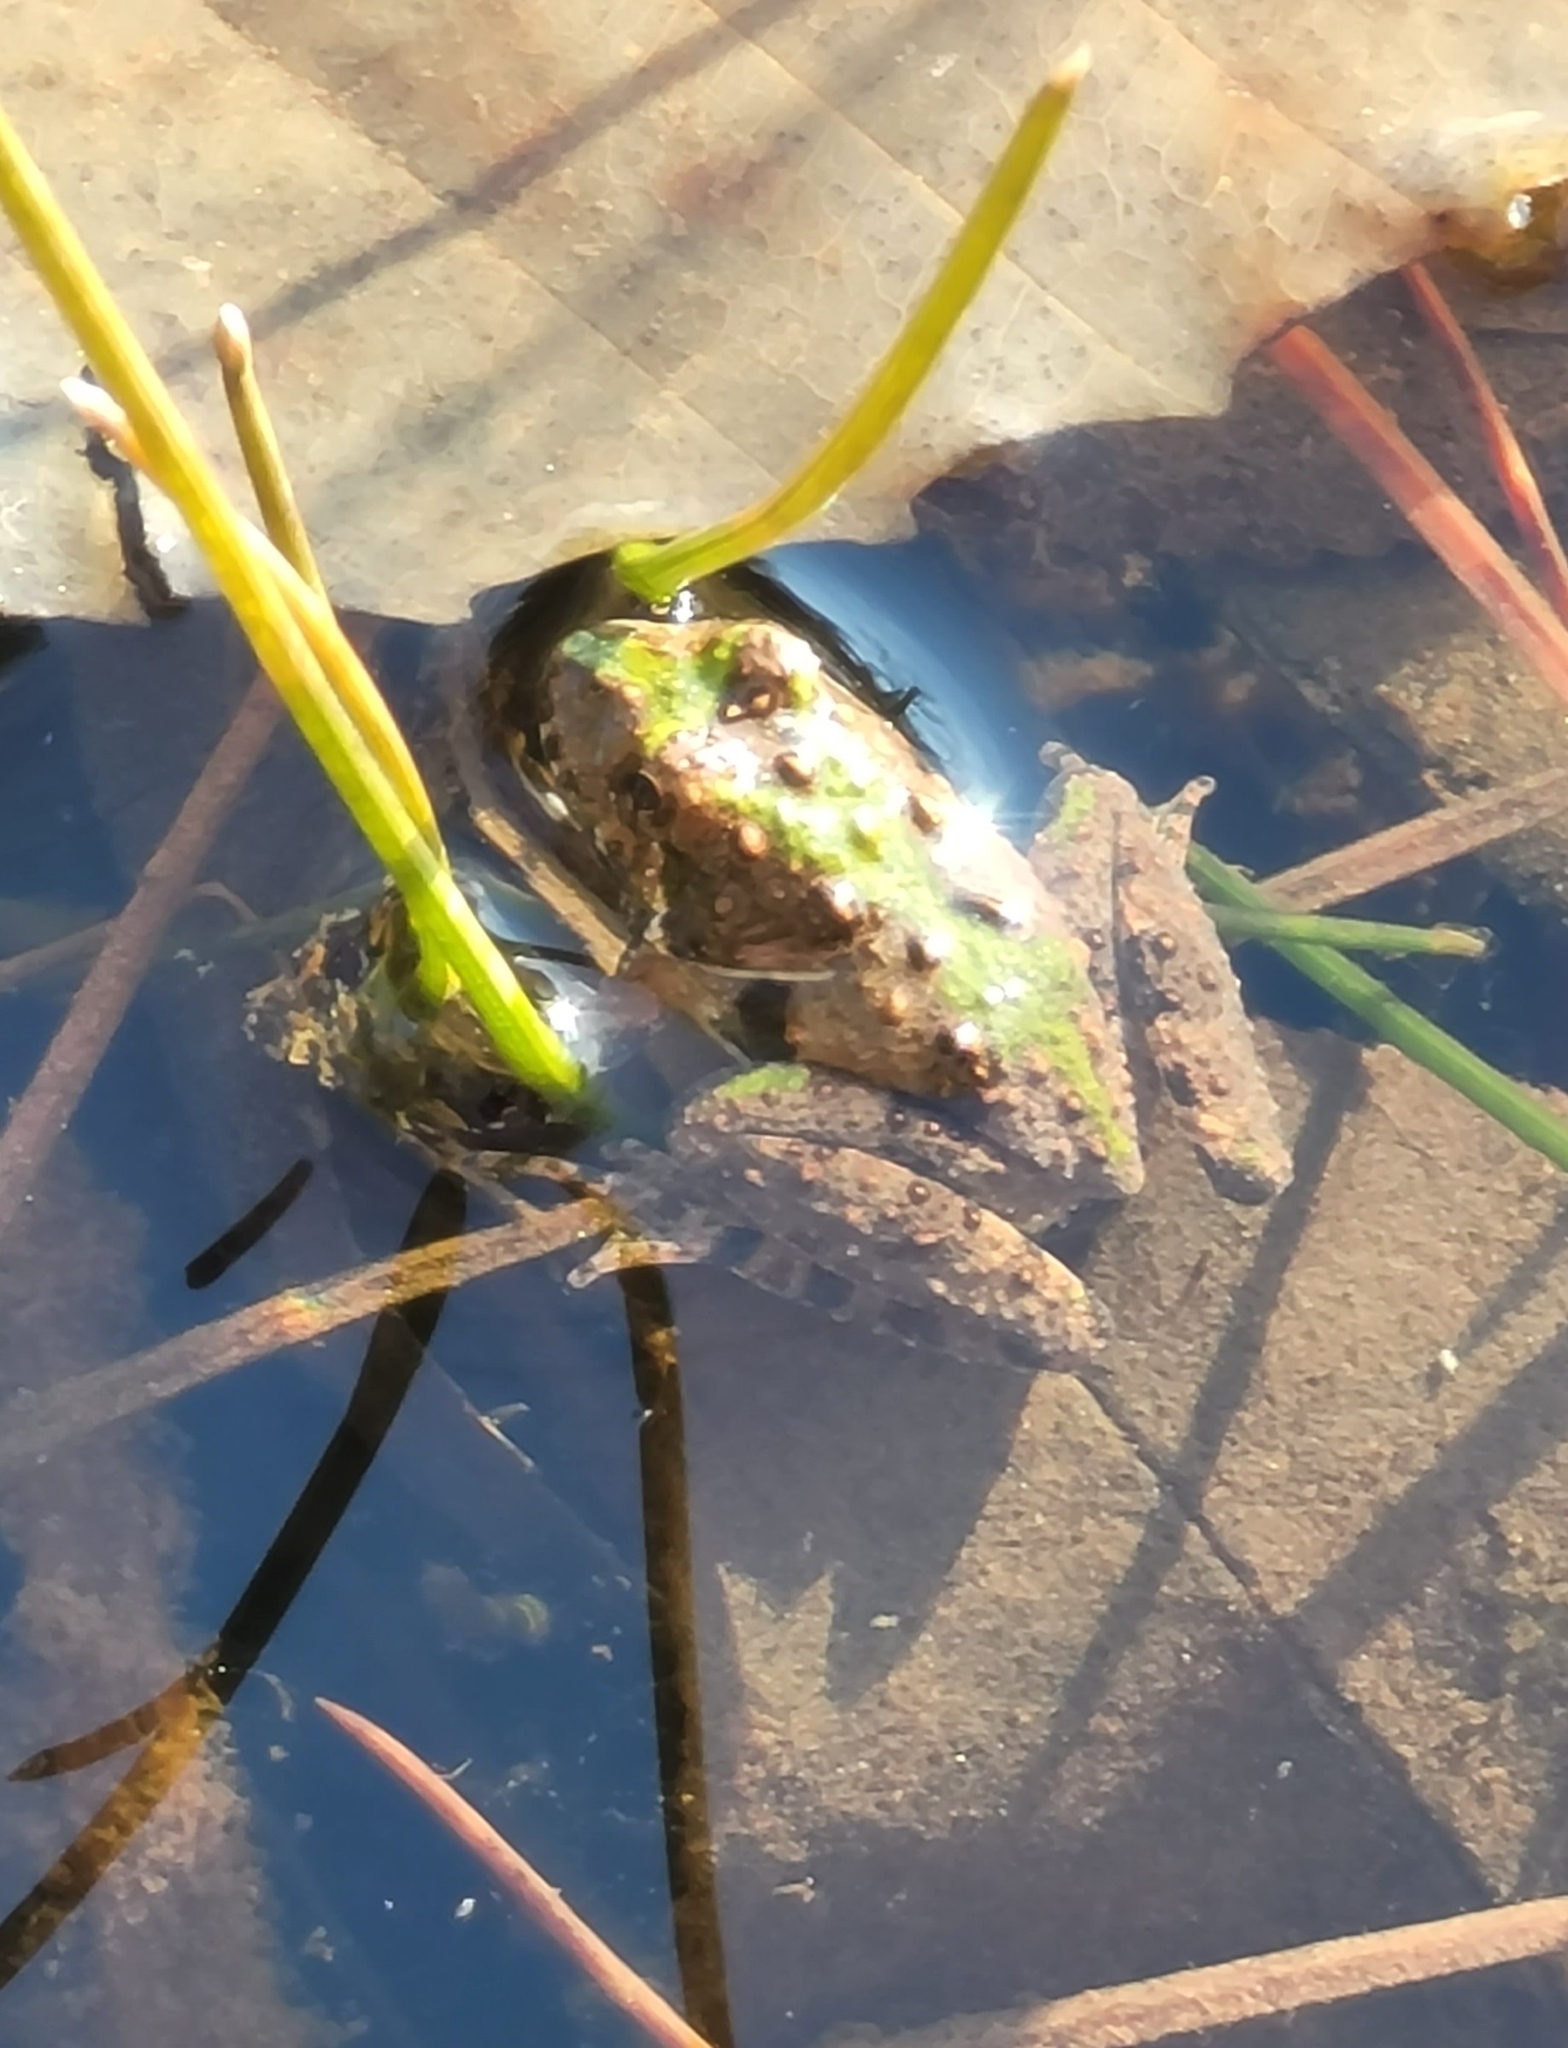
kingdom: Animalia
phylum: Chordata
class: Amphibia
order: Anura
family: Hylidae
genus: Acris
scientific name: Acris crepitans
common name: Northern cricket frog
